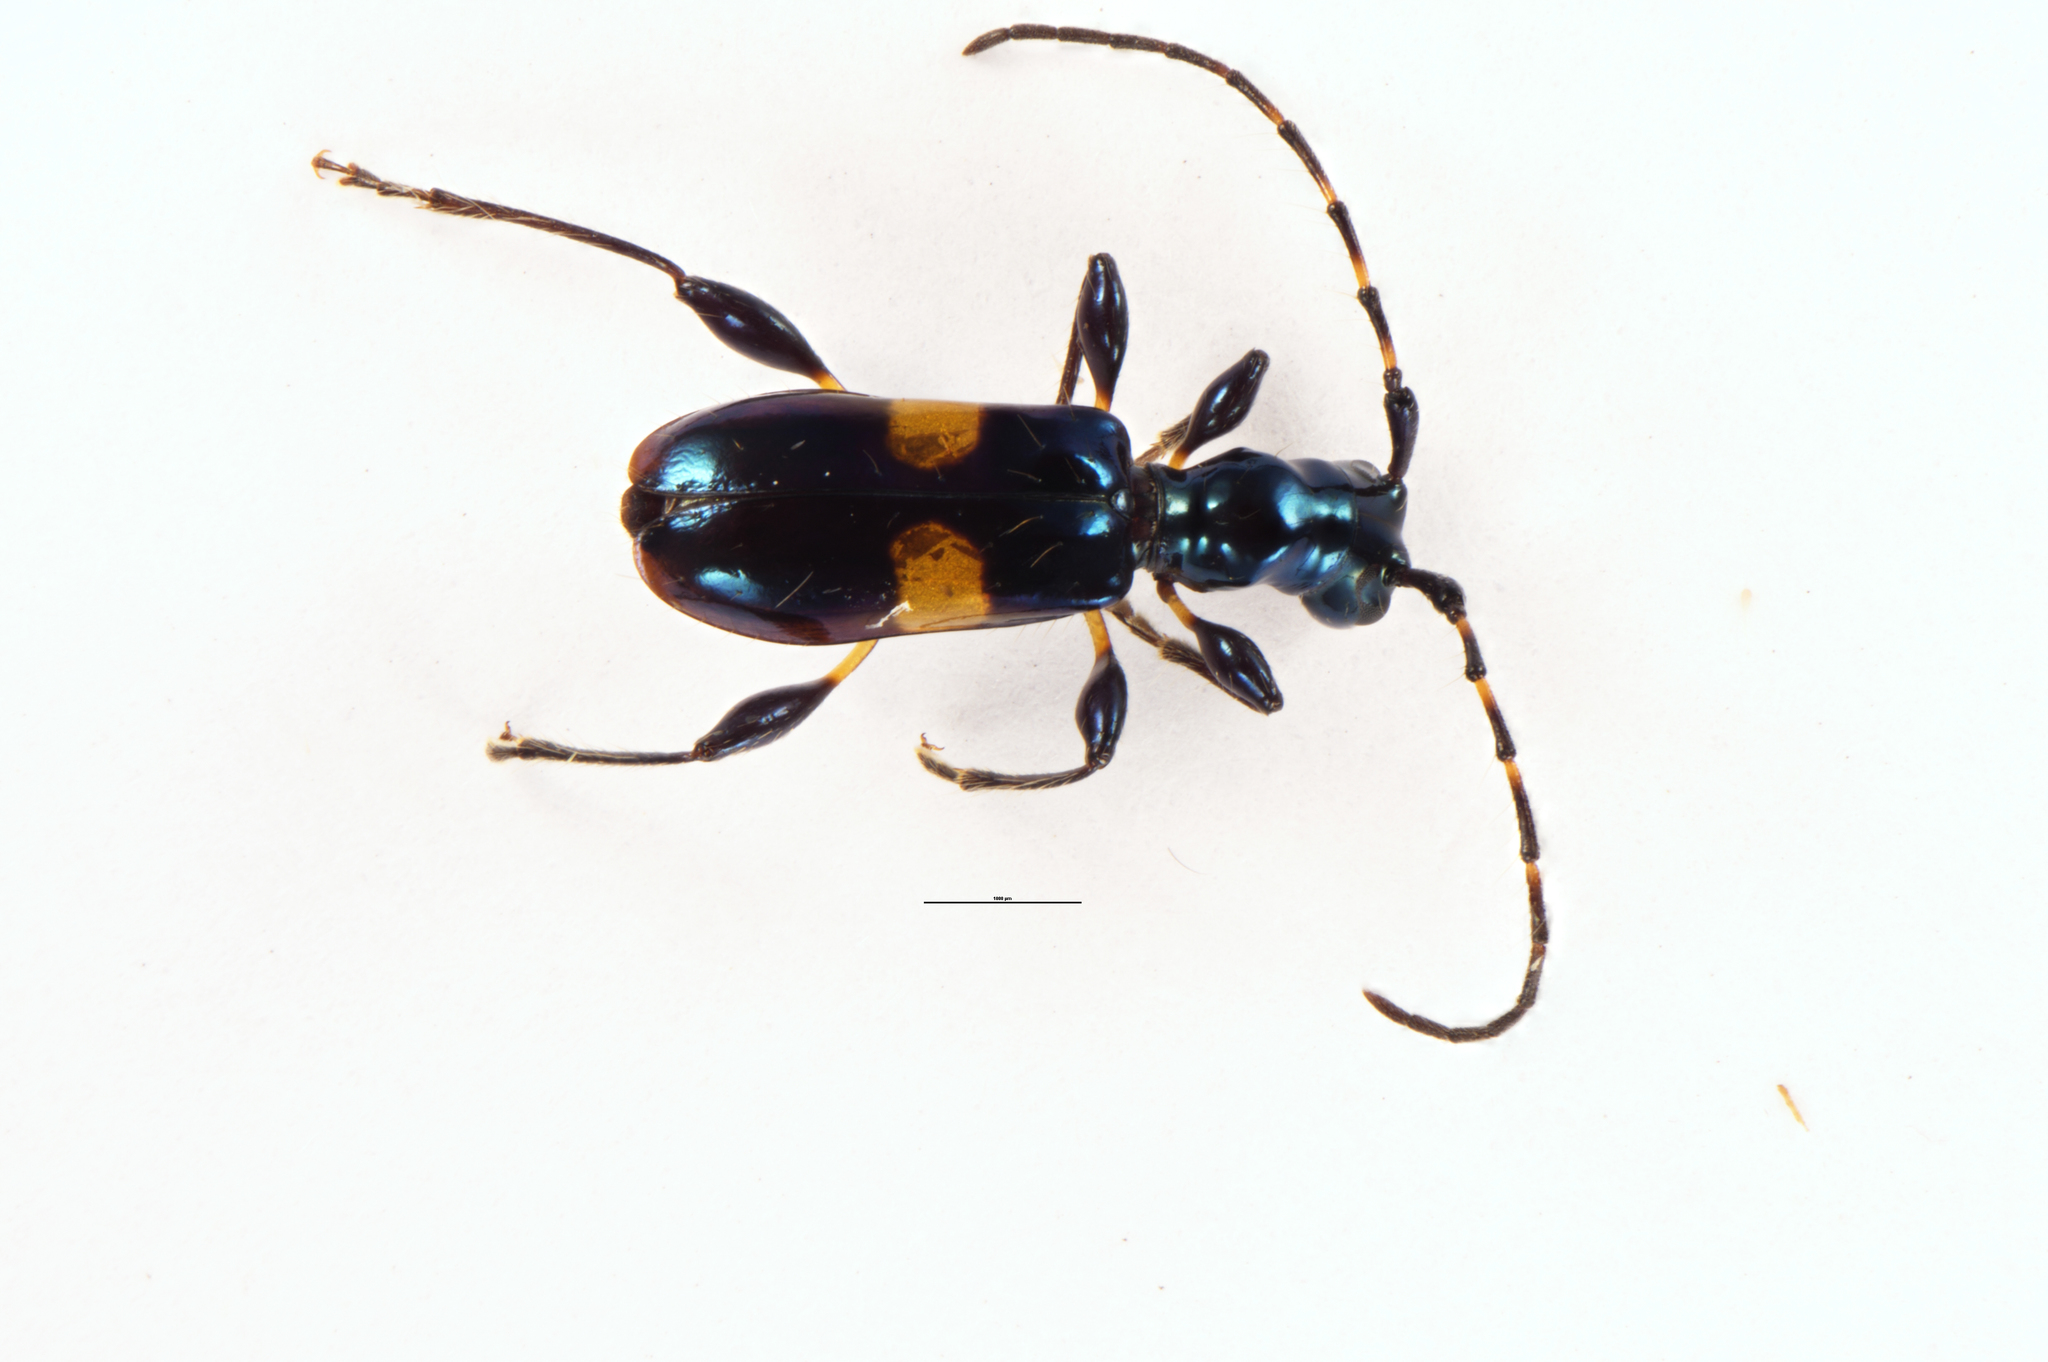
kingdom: Animalia
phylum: Arthropoda
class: Insecta
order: Coleoptera
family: Cerambycidae
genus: Zorion
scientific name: Zorion guttigerum
